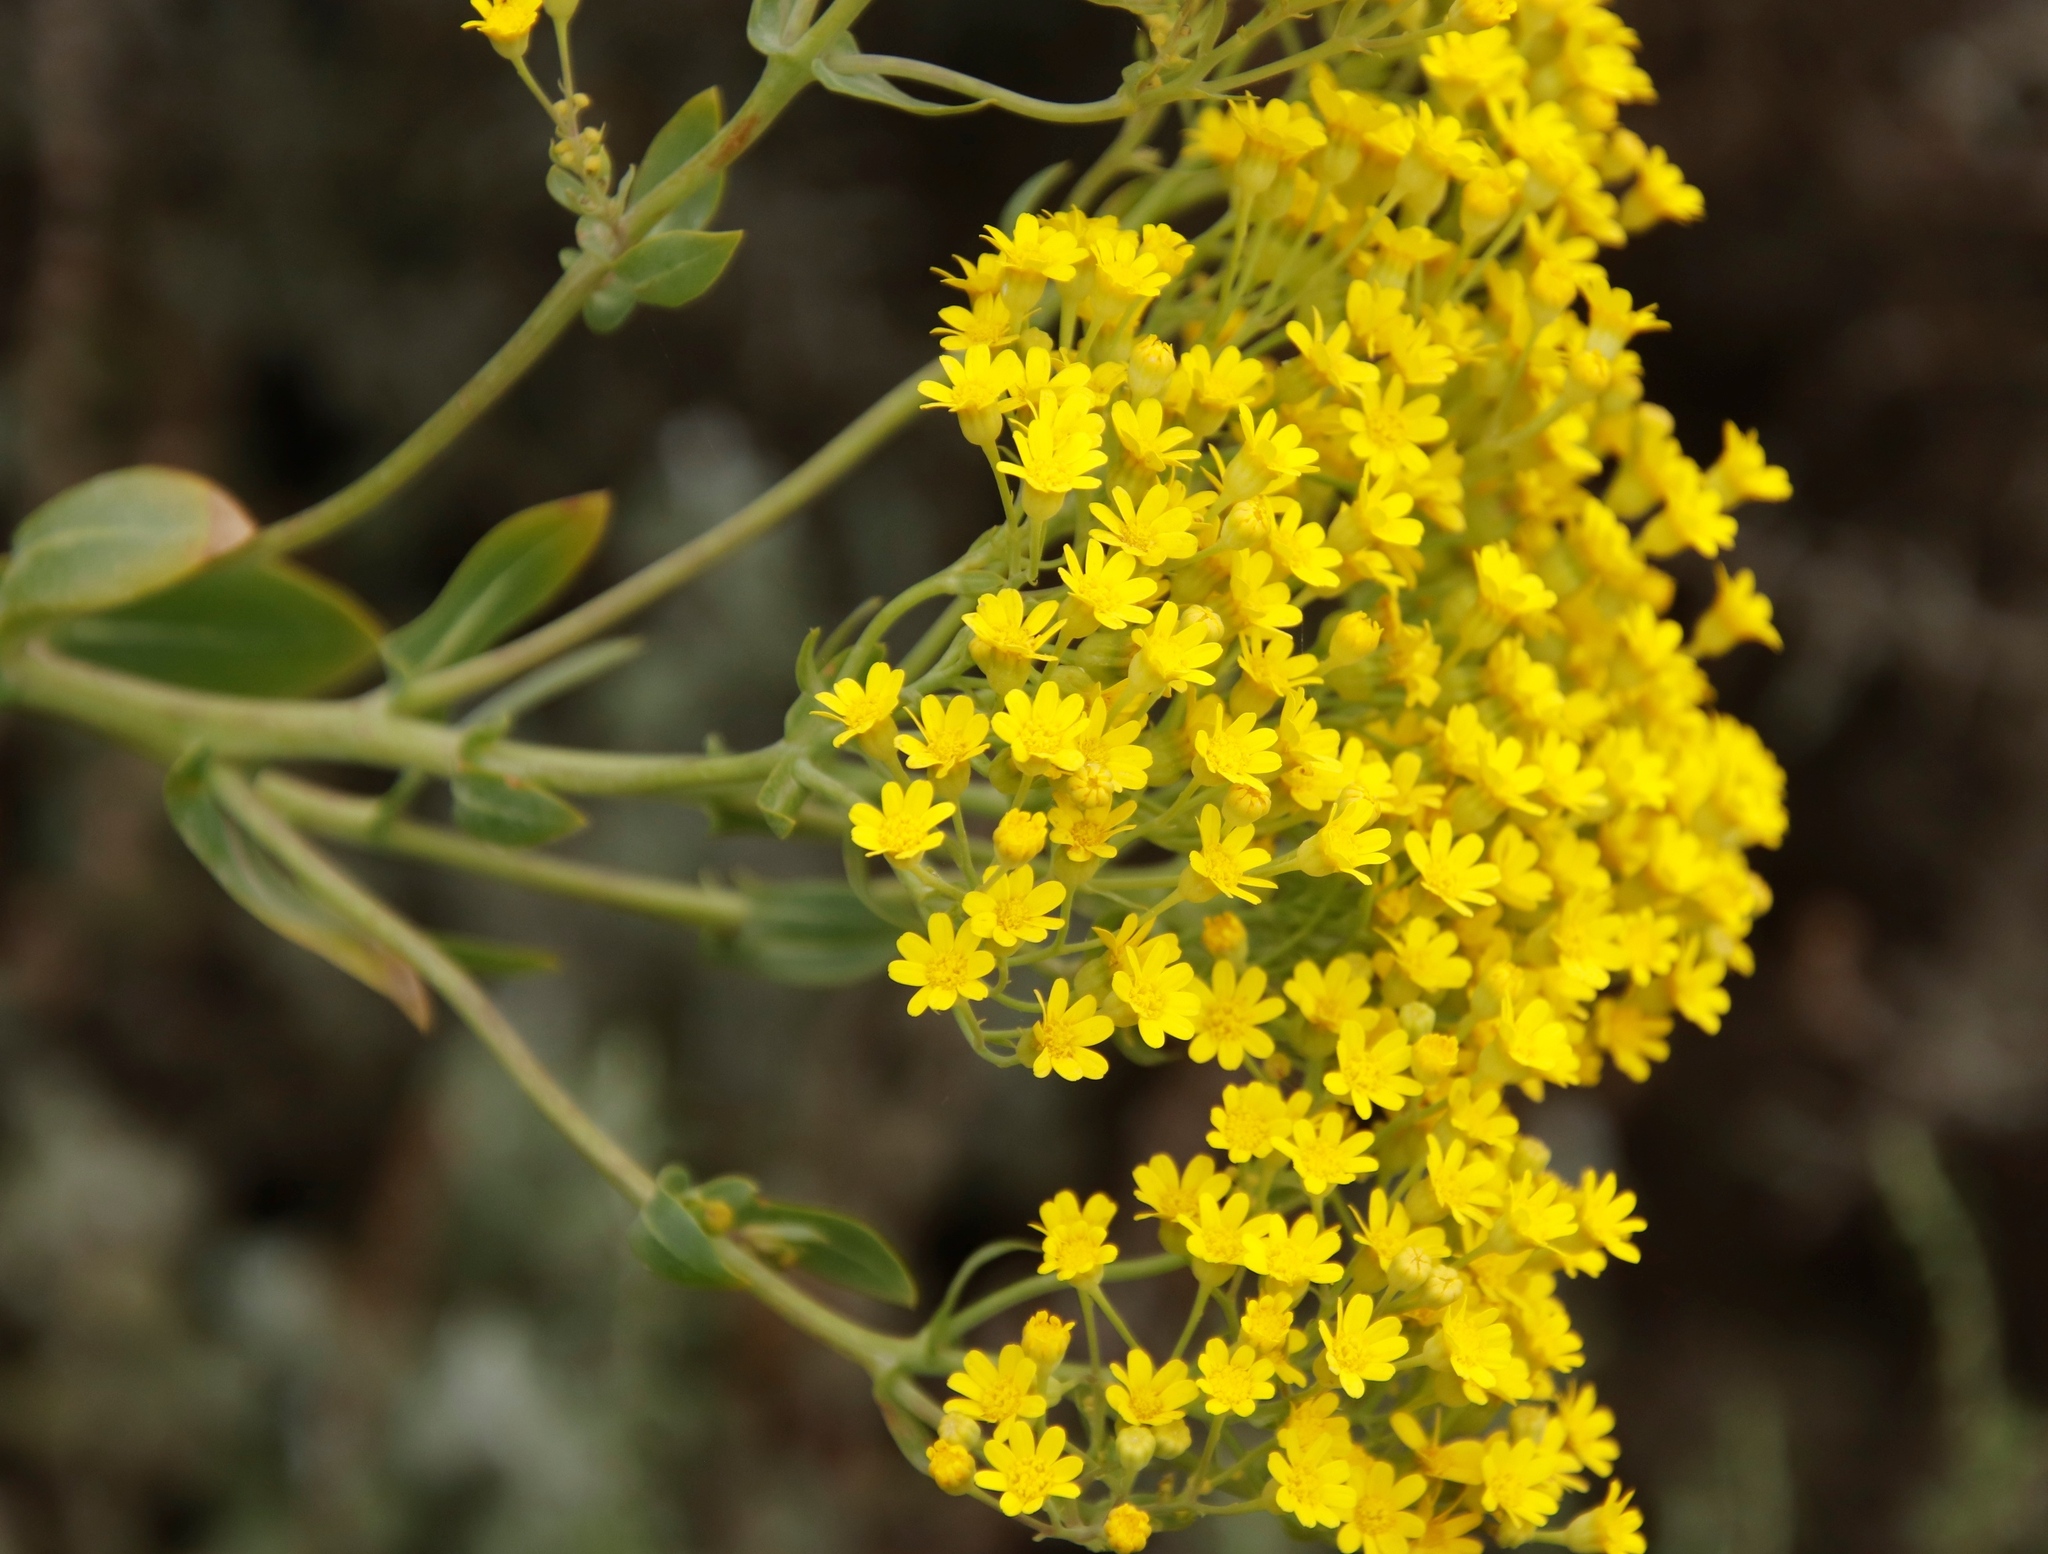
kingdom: Plantae
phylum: Tracheophyta
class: Magnoliopsida
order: Asterales
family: Asteraceae
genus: Othonna
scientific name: Othonna parviflora
